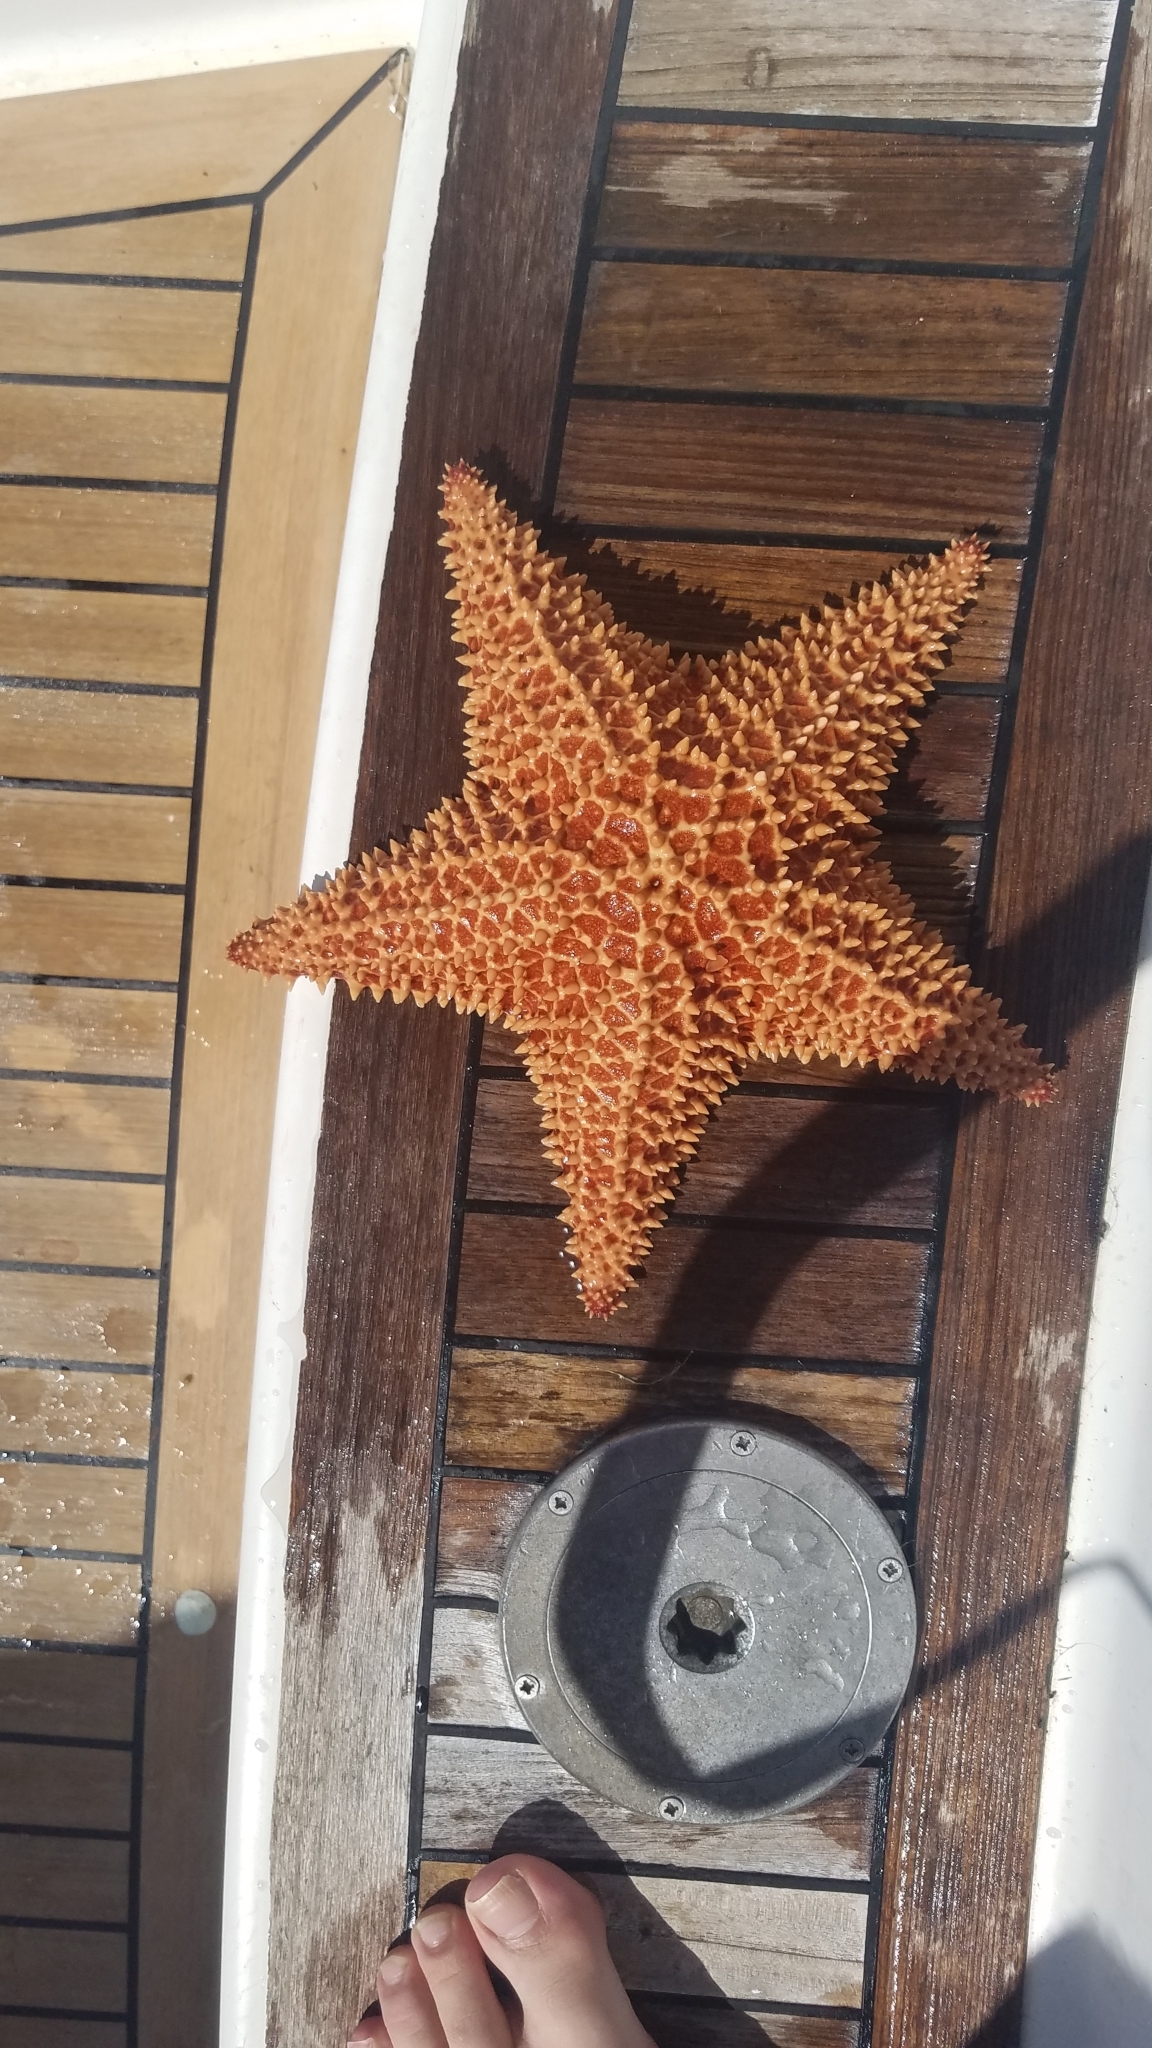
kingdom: Animalia
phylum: Echinodermata
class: Asteroidea
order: Valvatida
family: Oreasteridae
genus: Oreaster
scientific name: Oreaster reticulatus
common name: Cushion sea star
